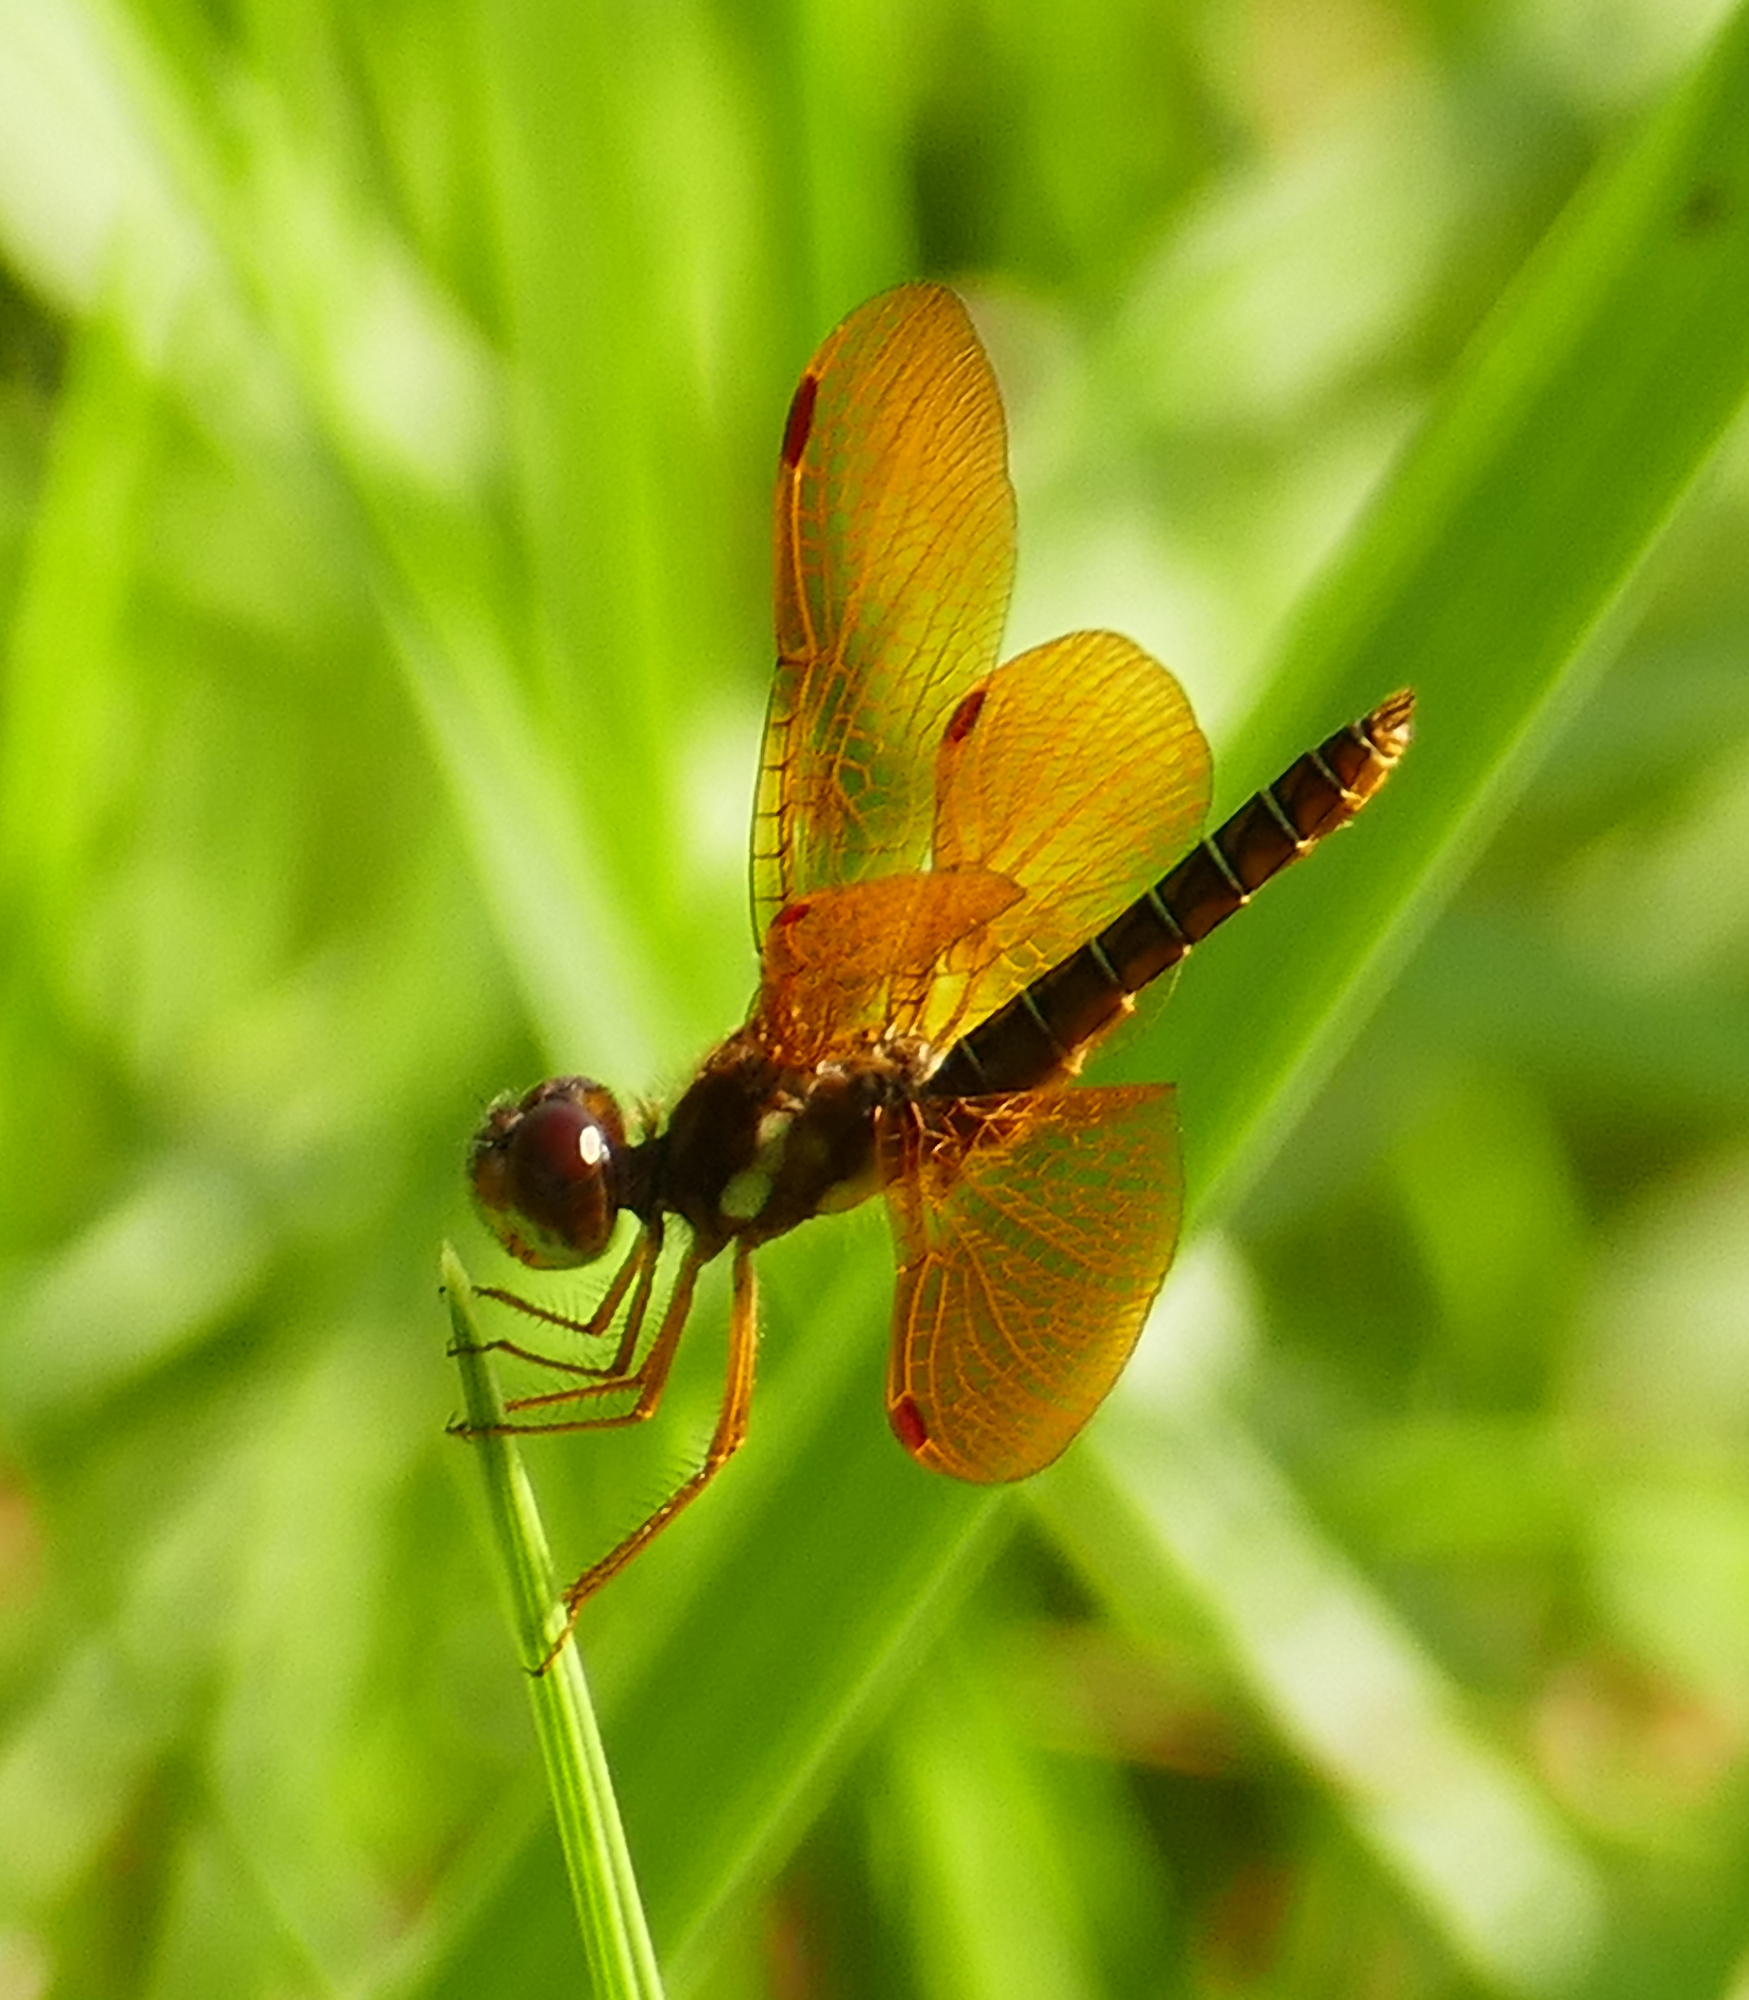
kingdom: Animalia
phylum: Arthropoda
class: Insecta
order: Odonata
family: Libellulidae
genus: Perithemis
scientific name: Perithemis tenera
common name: Eastern amberwing
